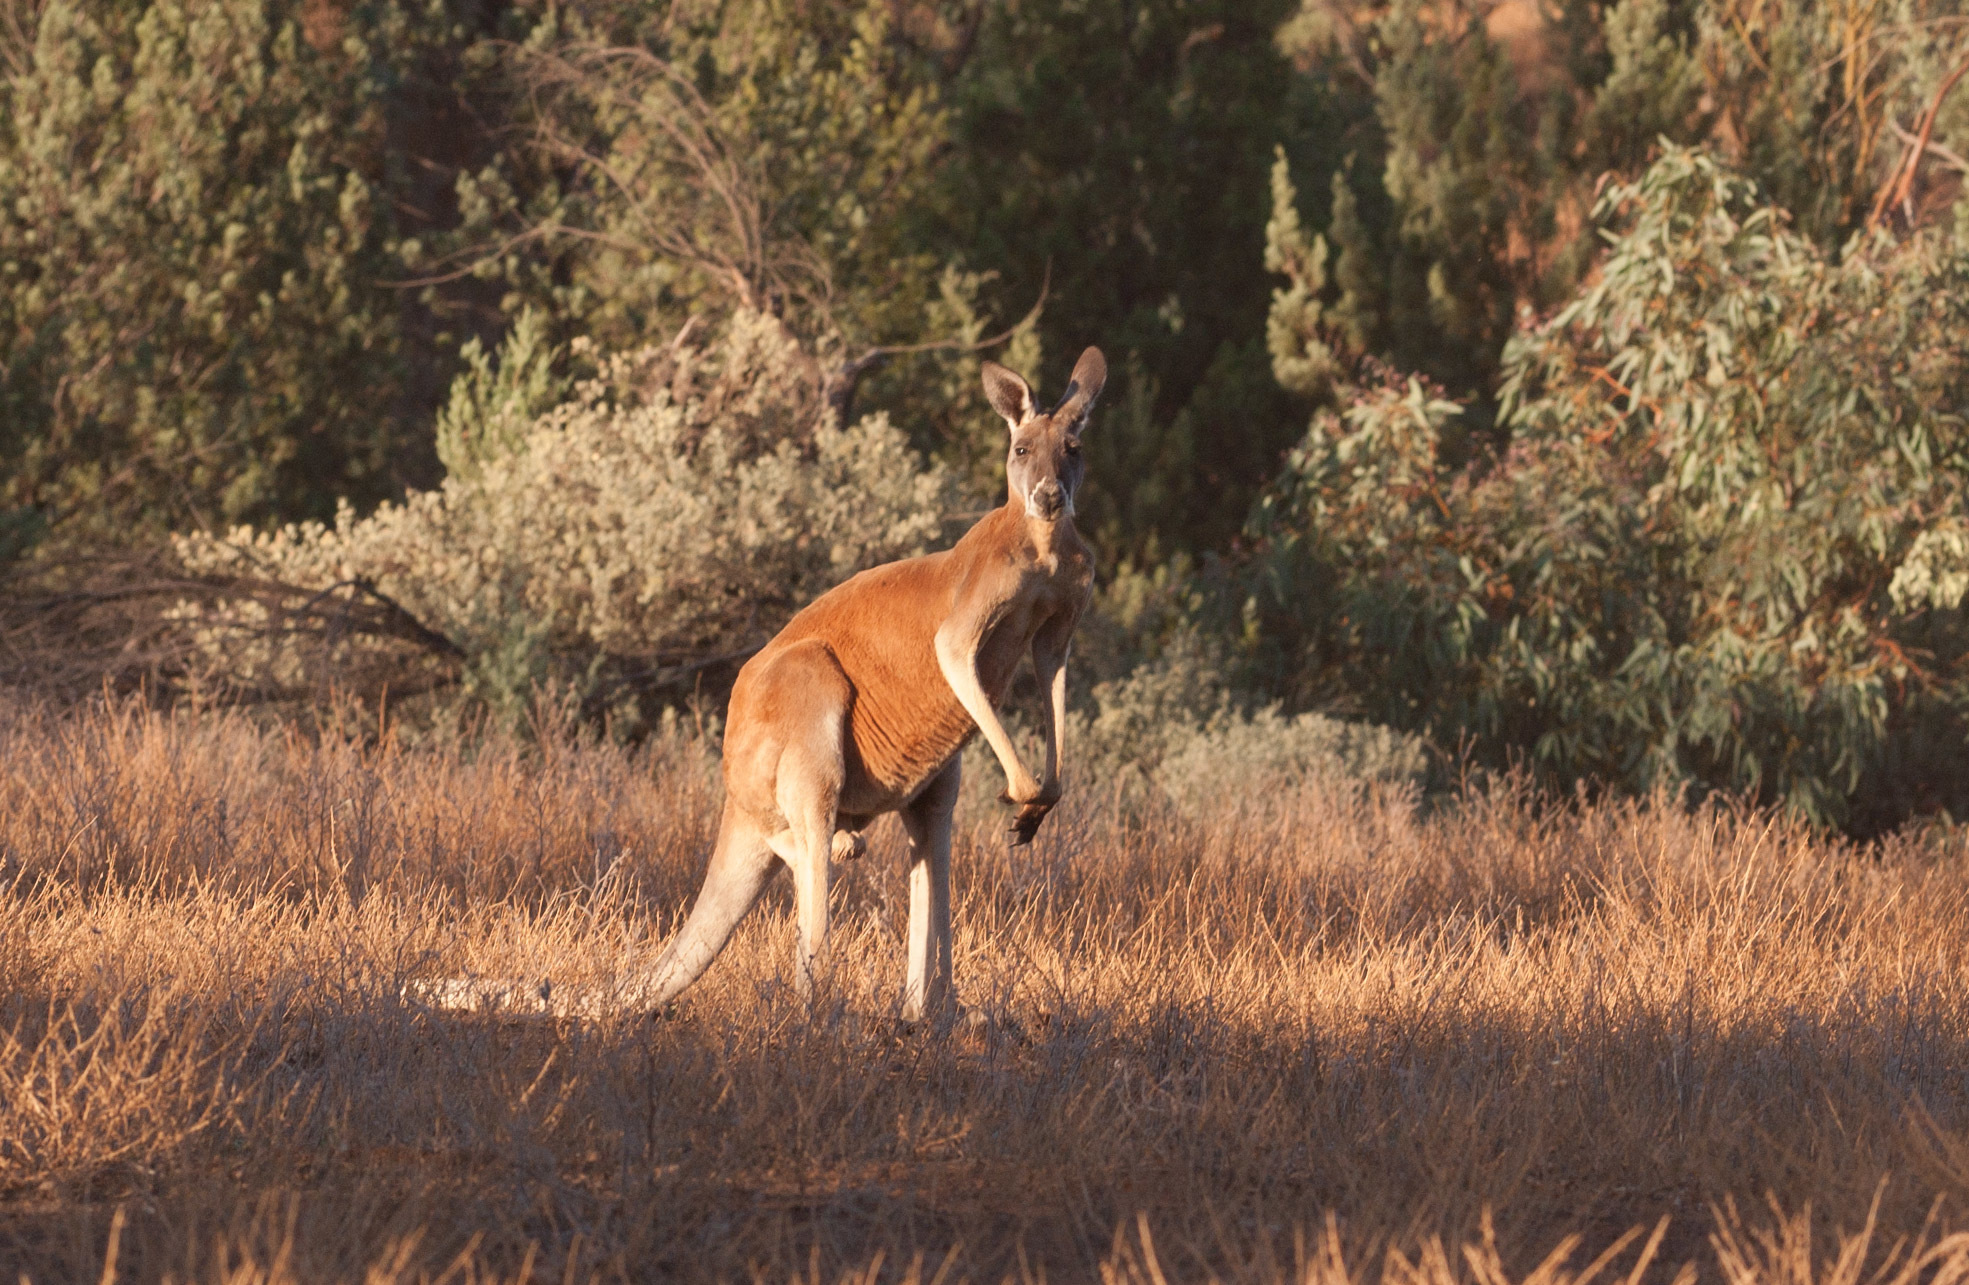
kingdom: Animalia
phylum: Chordata
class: Mammalia
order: Diprotodontia
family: Macropodidae
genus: Macropus
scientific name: Macropus rufus
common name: Red kangaroo
